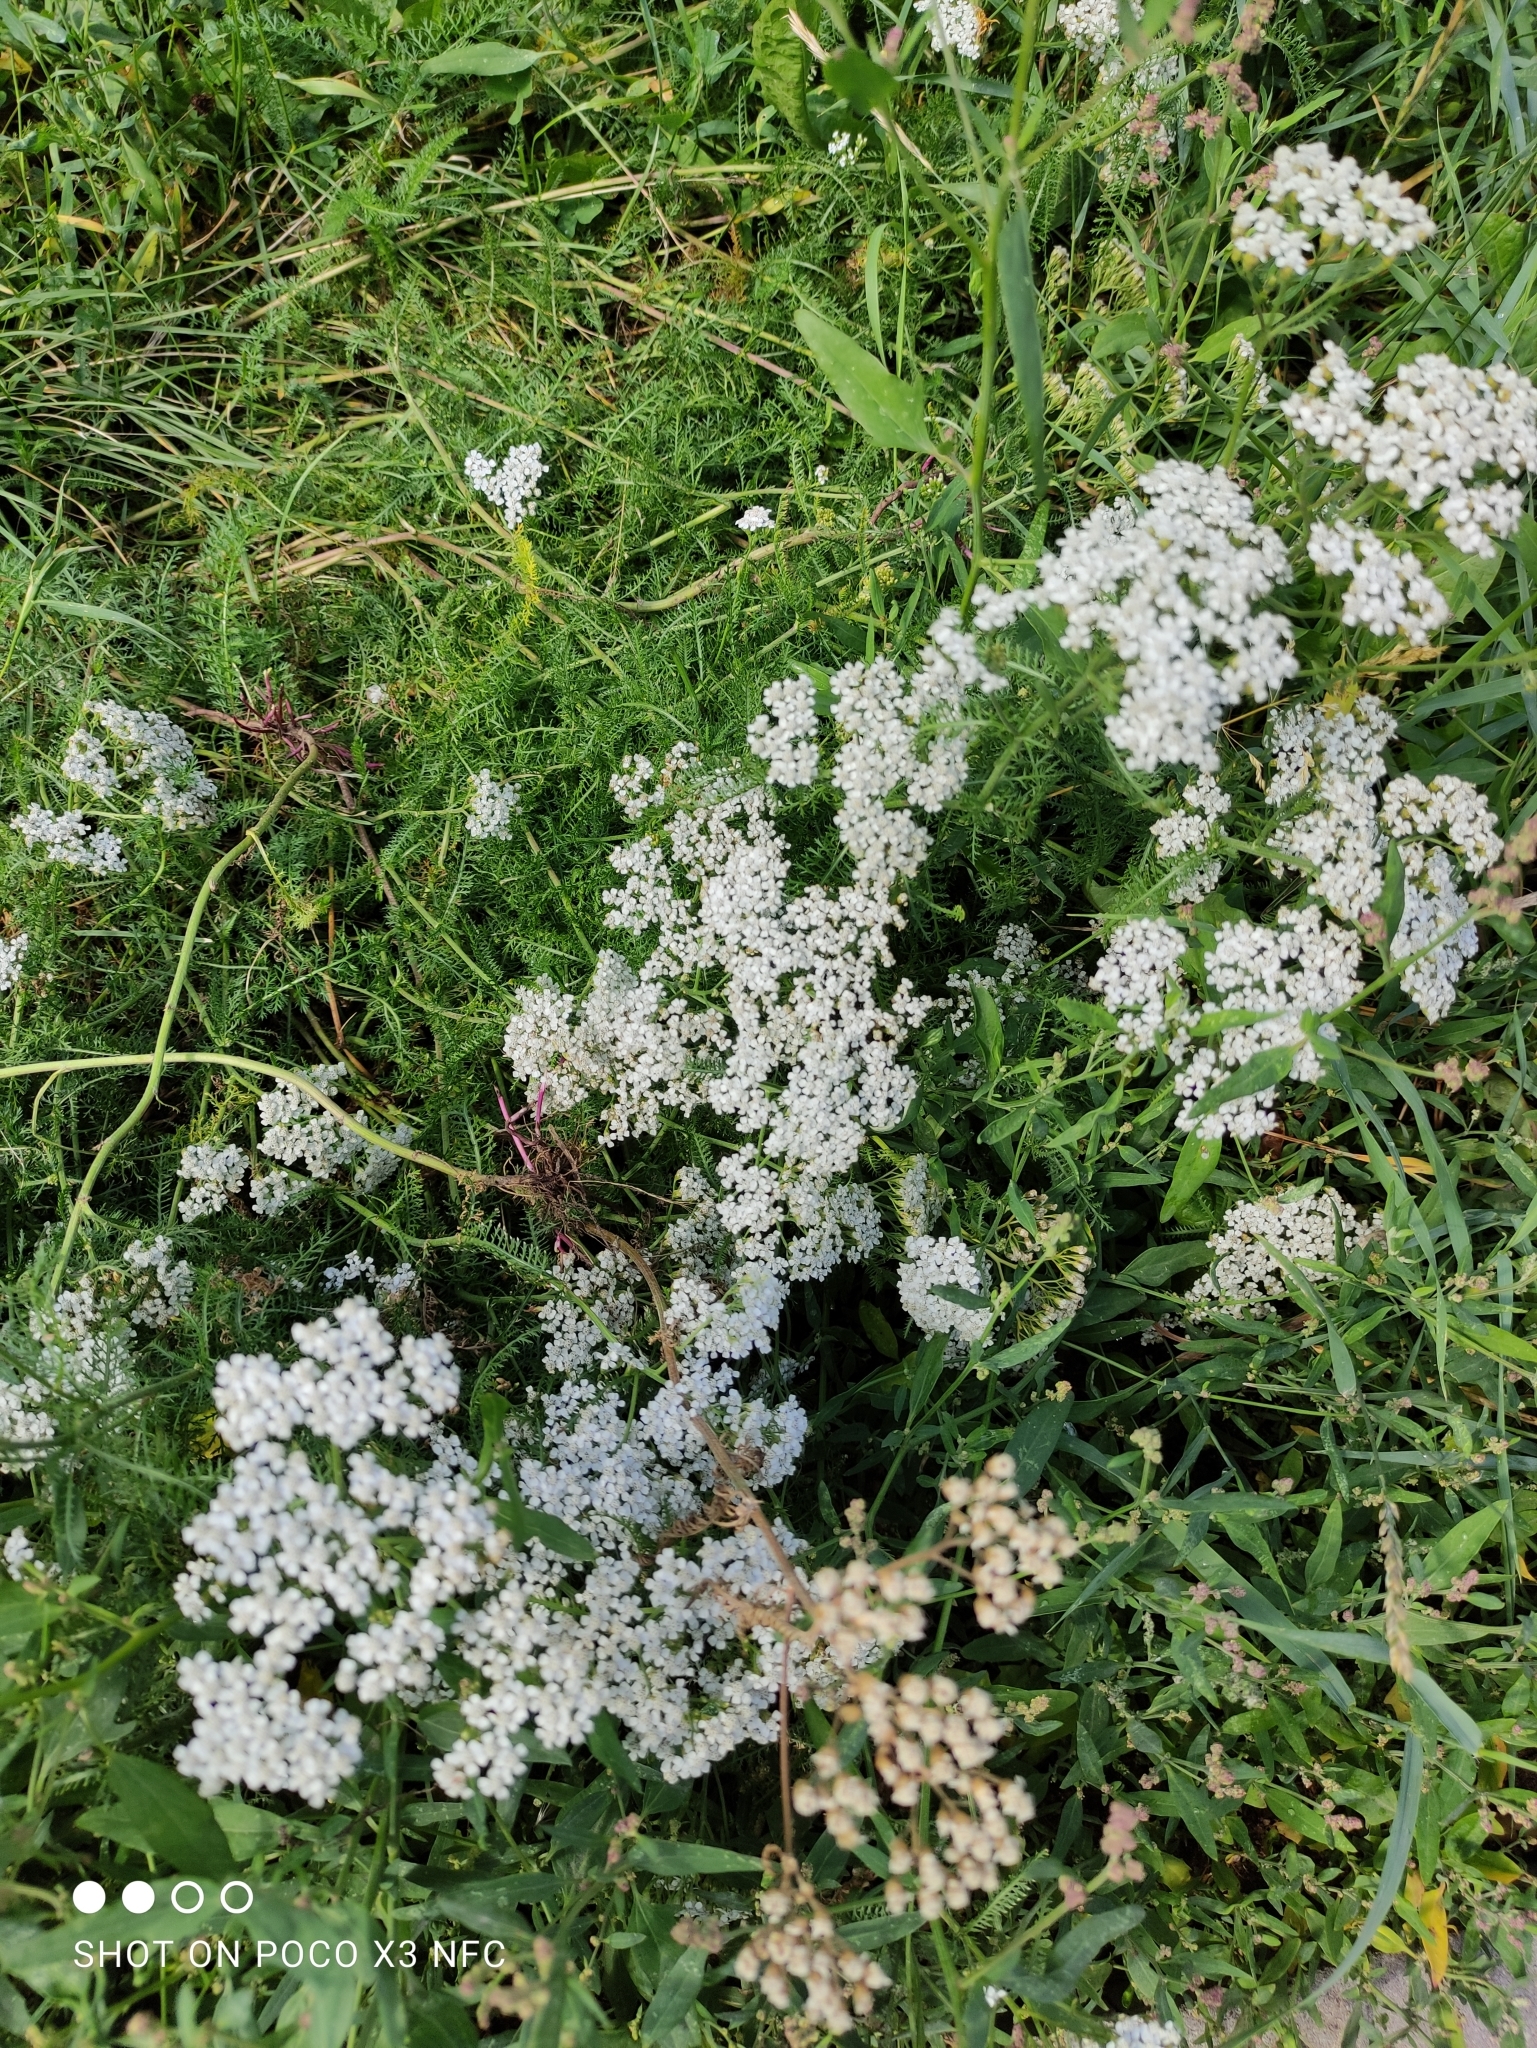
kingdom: Plantae
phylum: Tracheophyta
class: Magnoliopsida
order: Asterales
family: Asteraceae
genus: Achillea
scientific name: Achillea millefolium
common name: Yarrow
